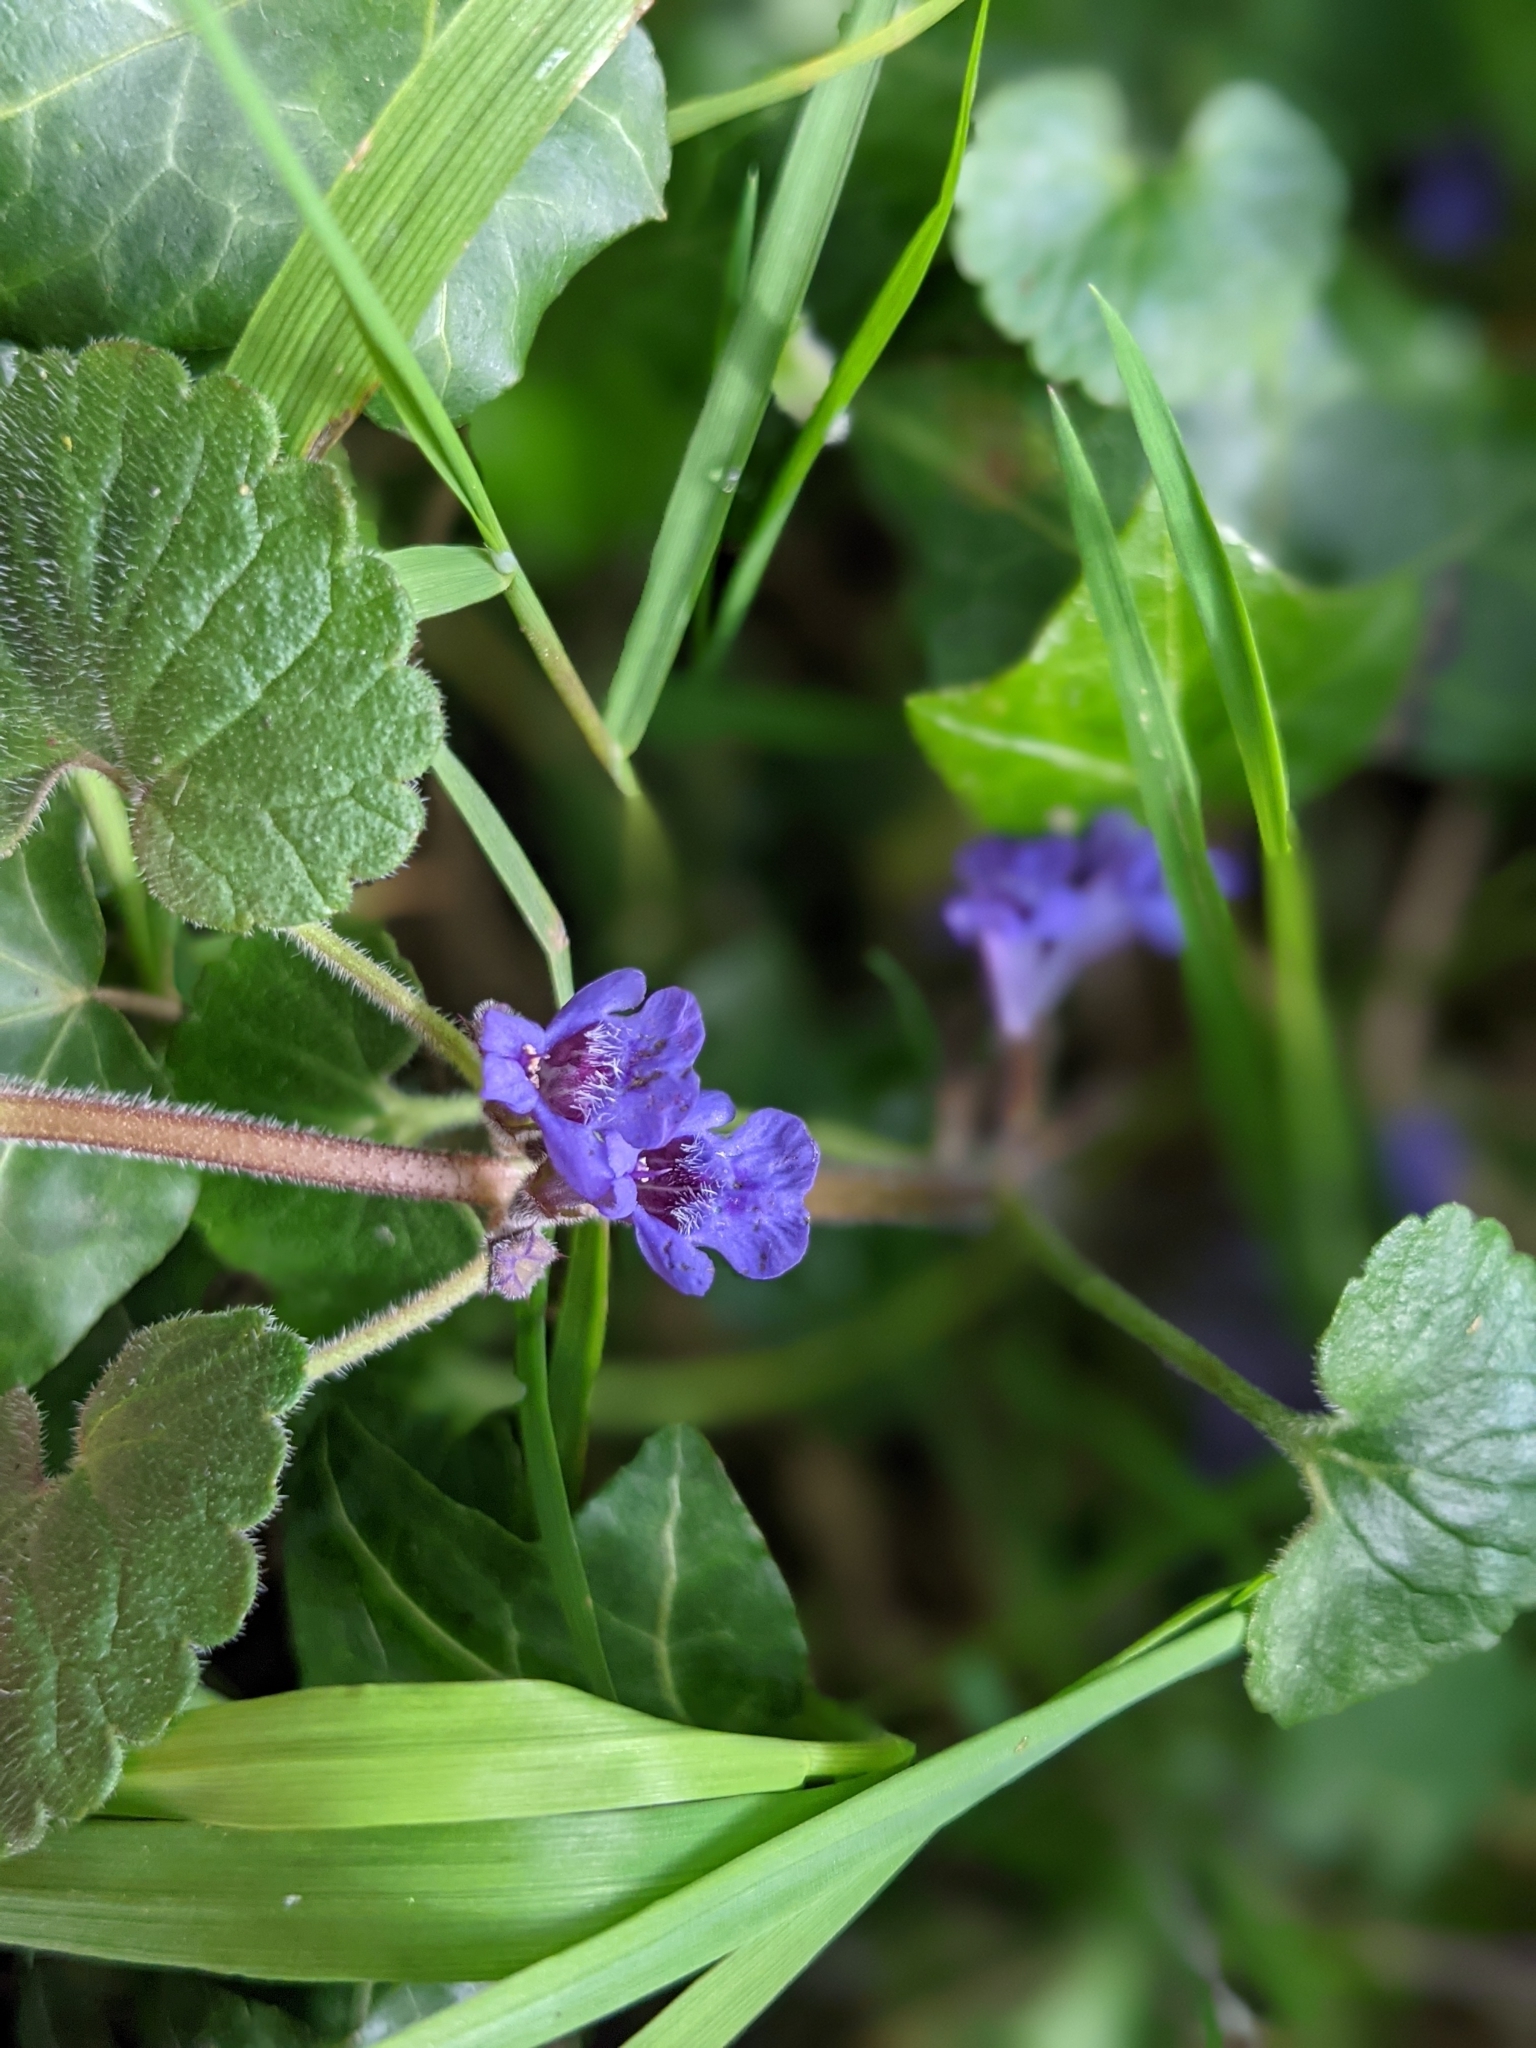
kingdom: Plantae
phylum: Tracheophyta
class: Magnoliopsida
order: Lamiales
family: Lamiaceae
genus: Glechoma
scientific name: Glechoma hederacea
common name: Ground ivy
